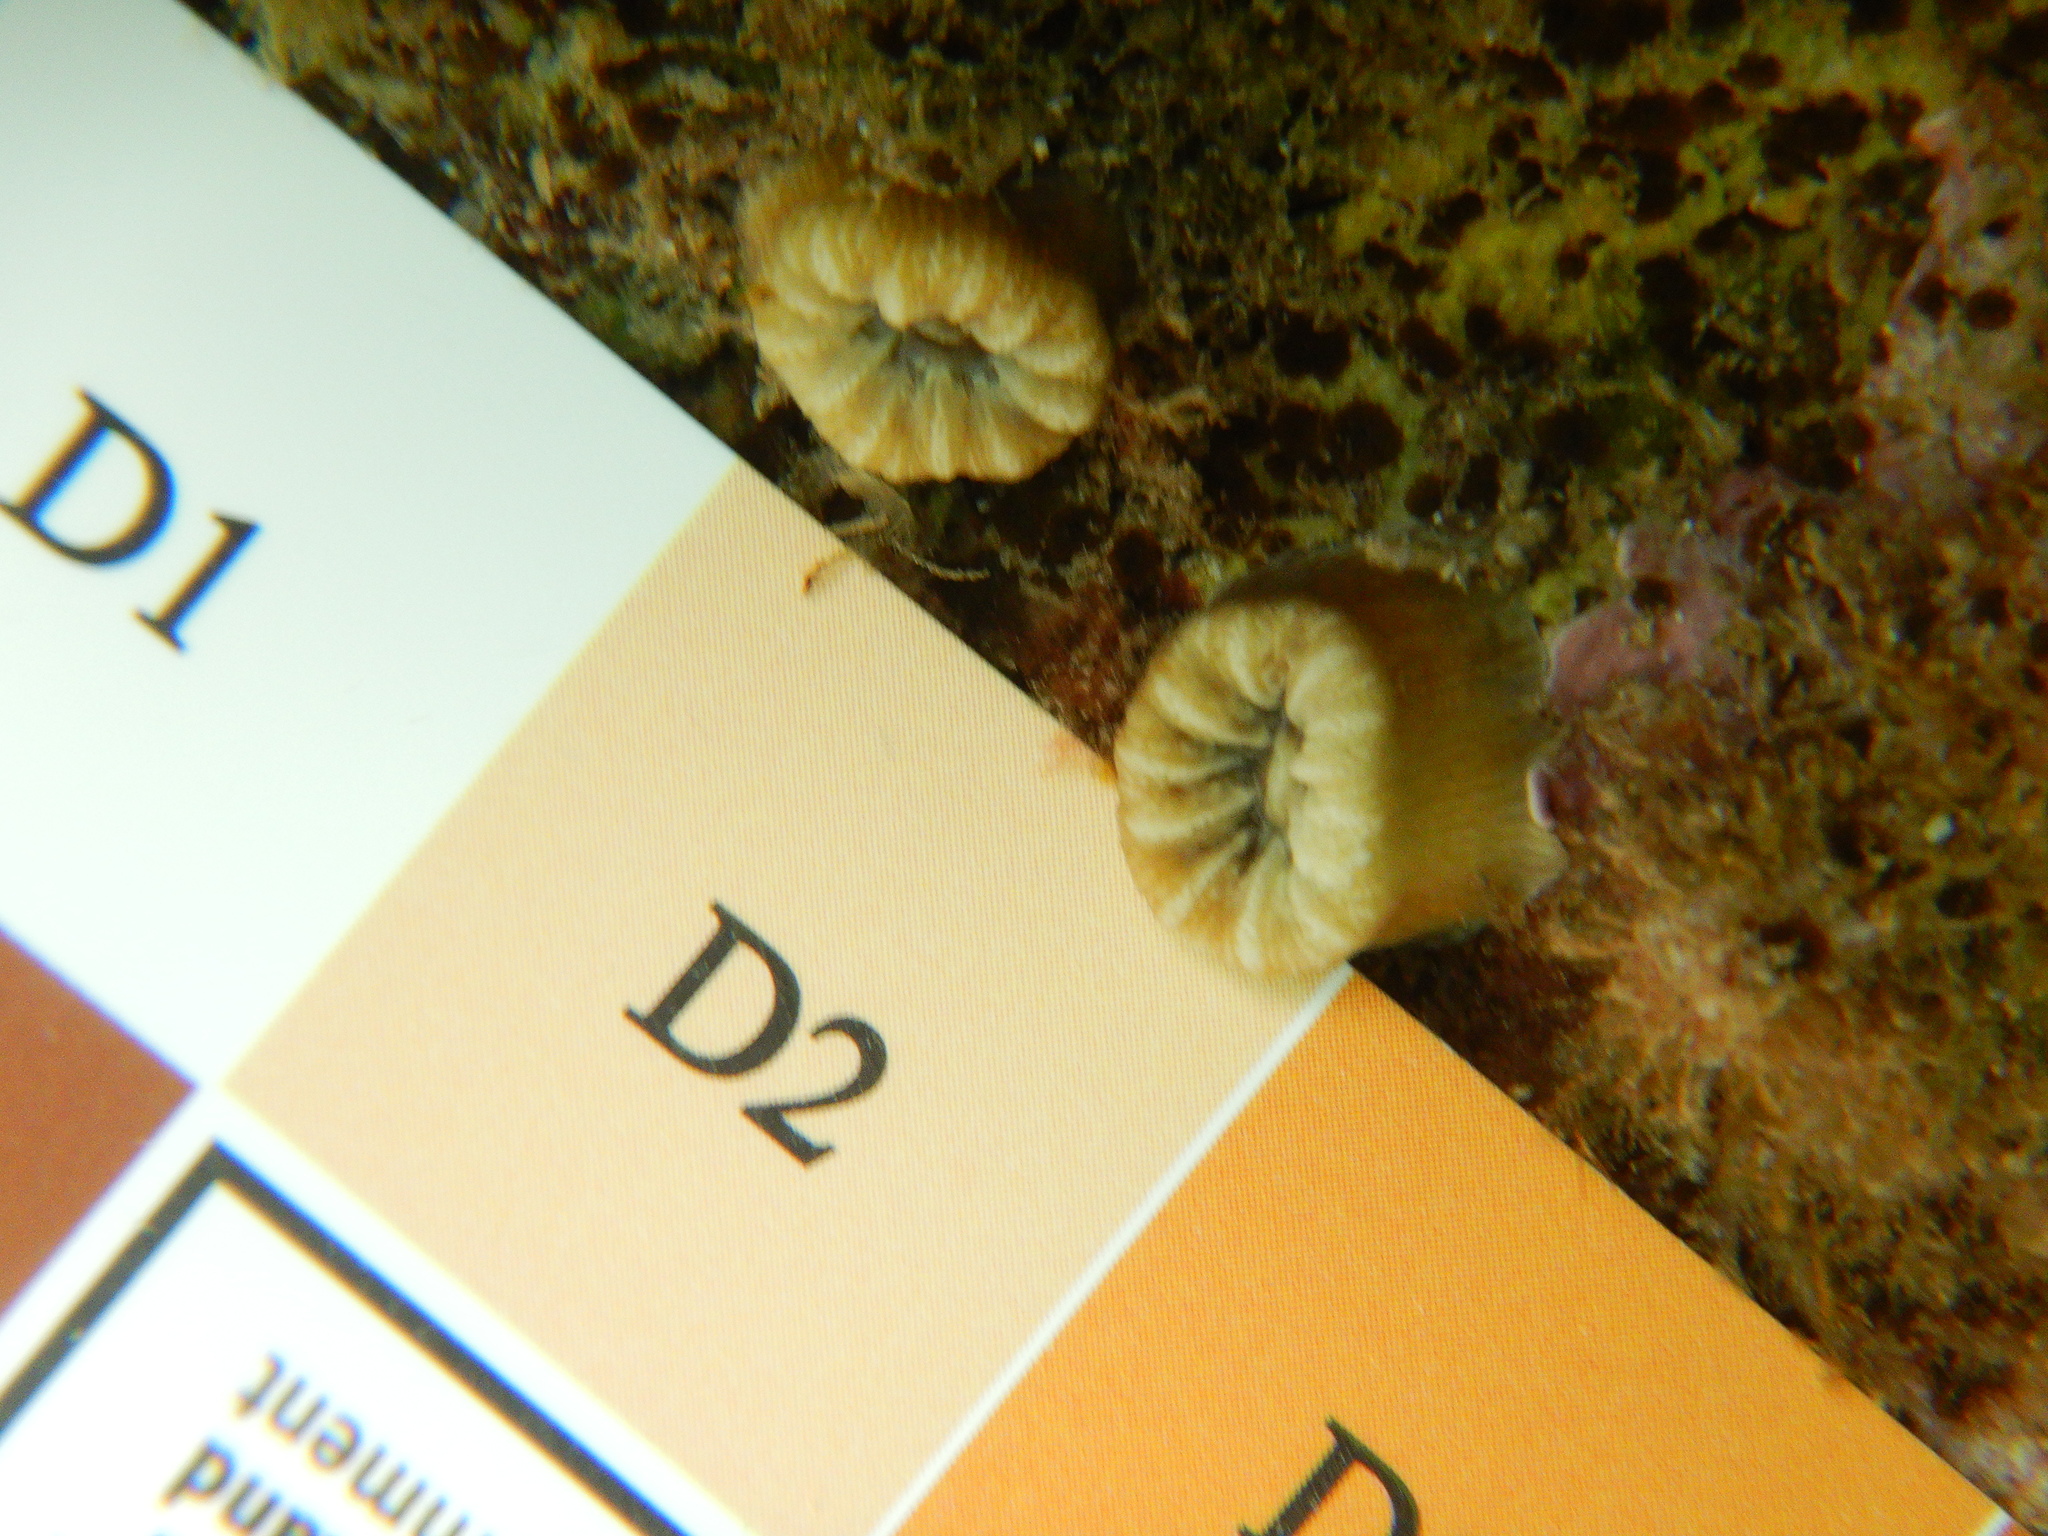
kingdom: Animalia
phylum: Cnidaria
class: Anthozoa
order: Scleractinia
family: Dendrophylliidae
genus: Balanophyllia
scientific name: Balanophyllia europaea
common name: Scarlet coral
